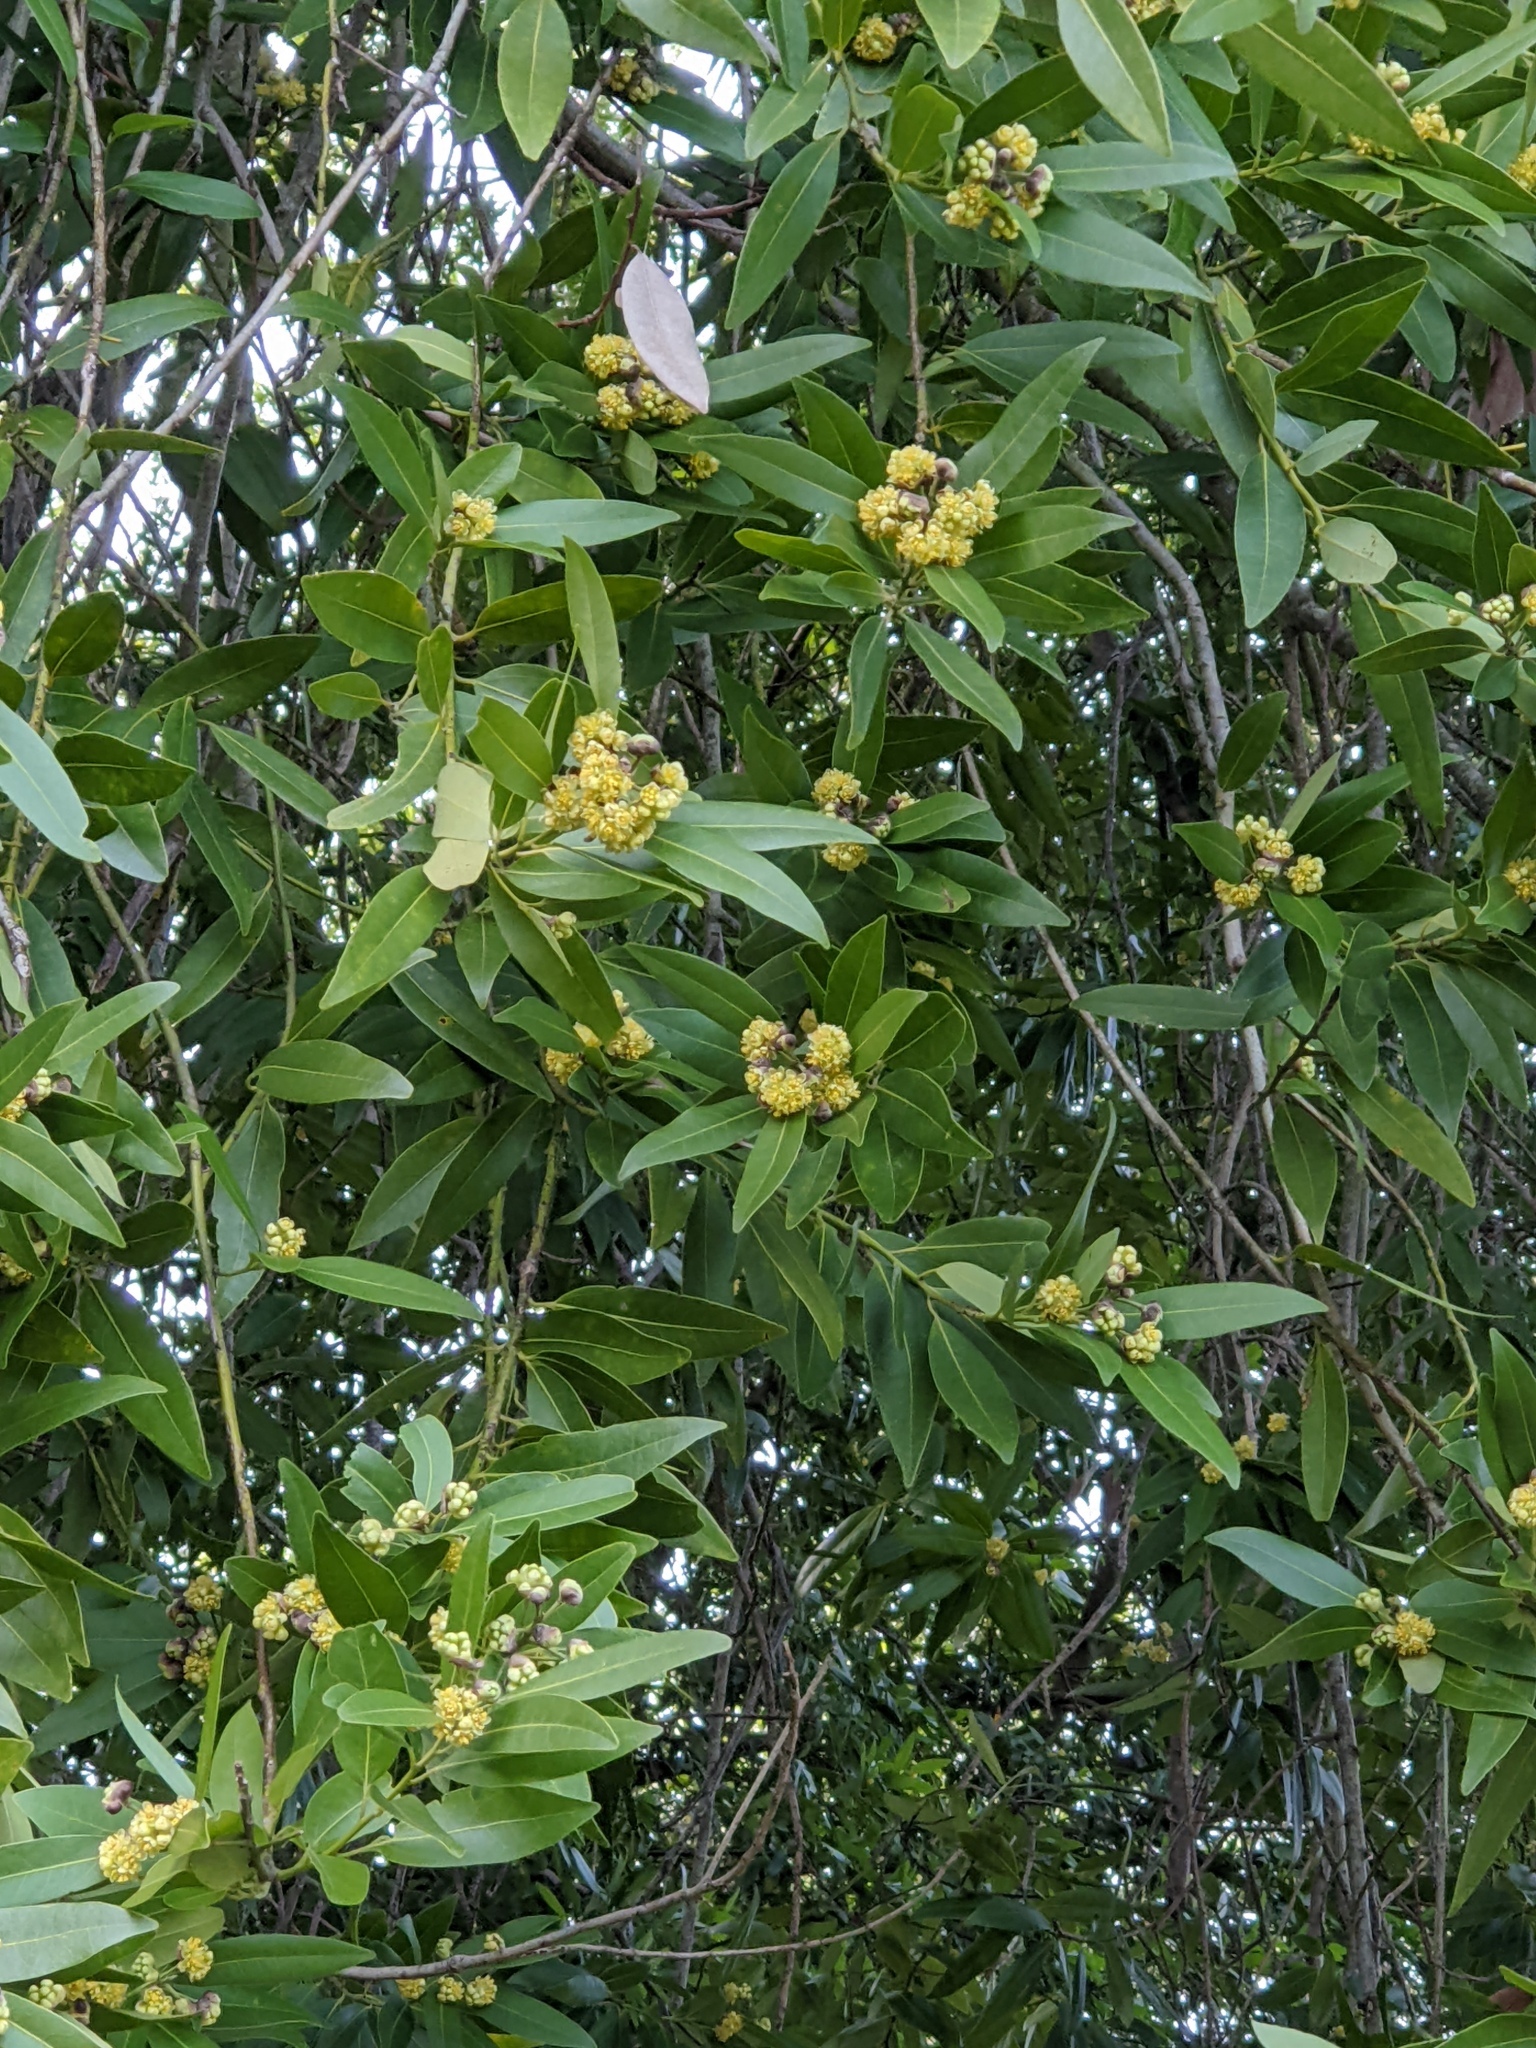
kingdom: Plantae
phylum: Tracheophyta
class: Magnoliopsida
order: Laurales
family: Lauraceae
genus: Umbellularia
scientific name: Umbellularia californica
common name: California bay
